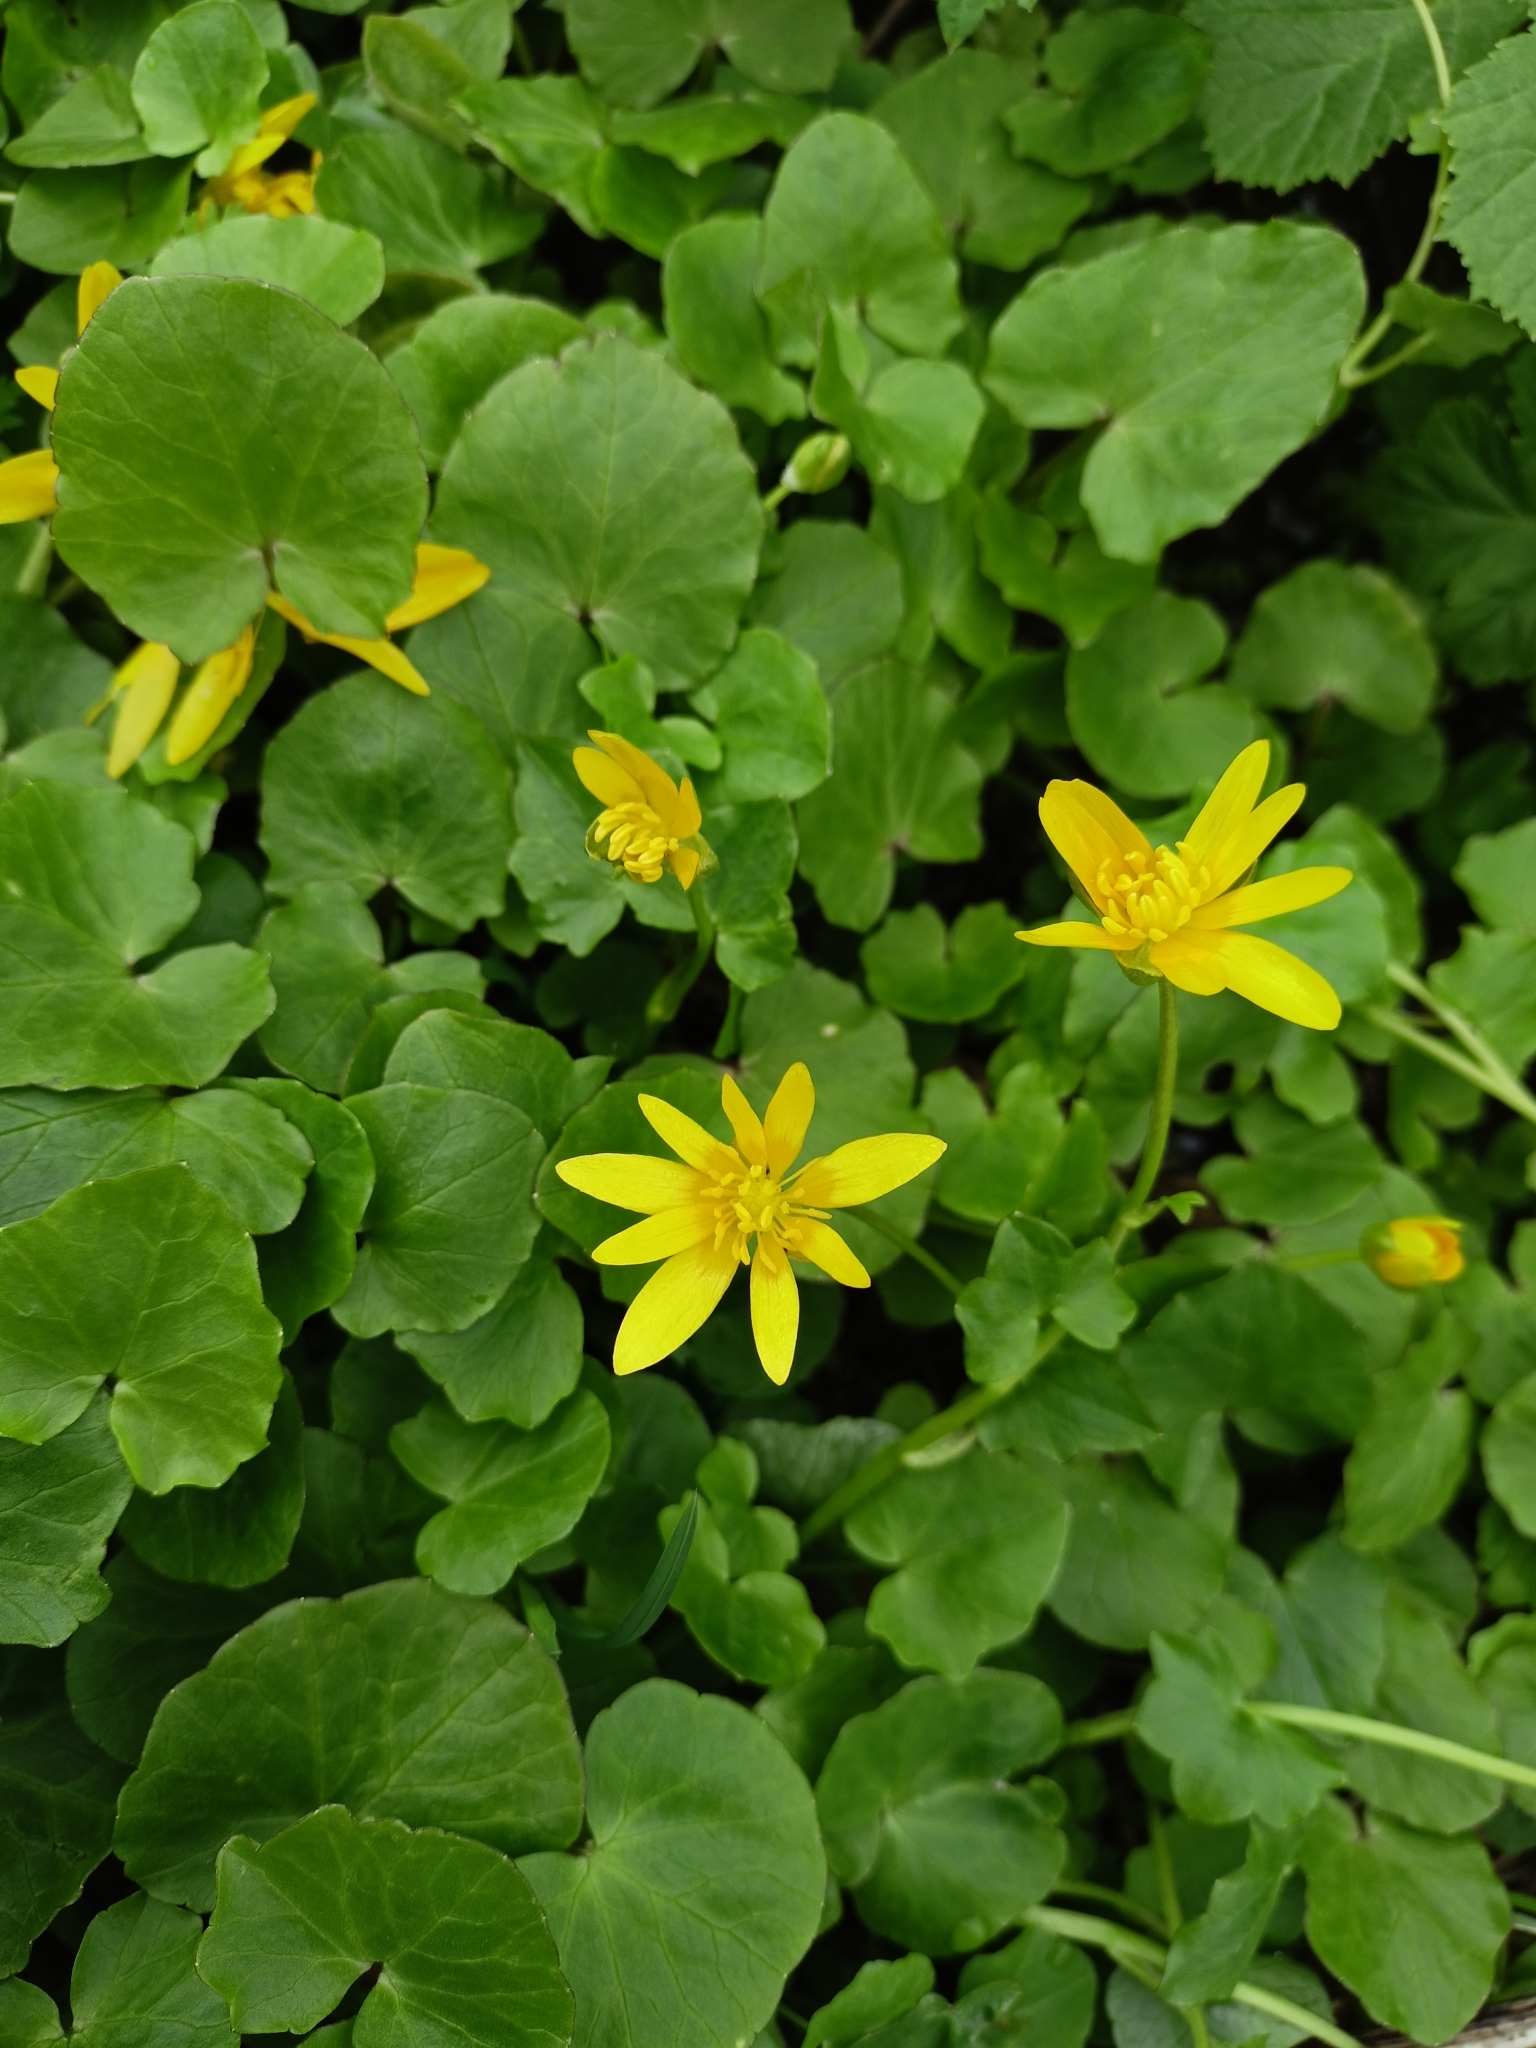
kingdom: Plantae
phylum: Tracheophyta
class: Magnoliopsida
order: Ranunculales
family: Ranunculaceae
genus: Ficaria
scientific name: Ficaria verna
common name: Lesser celandine
